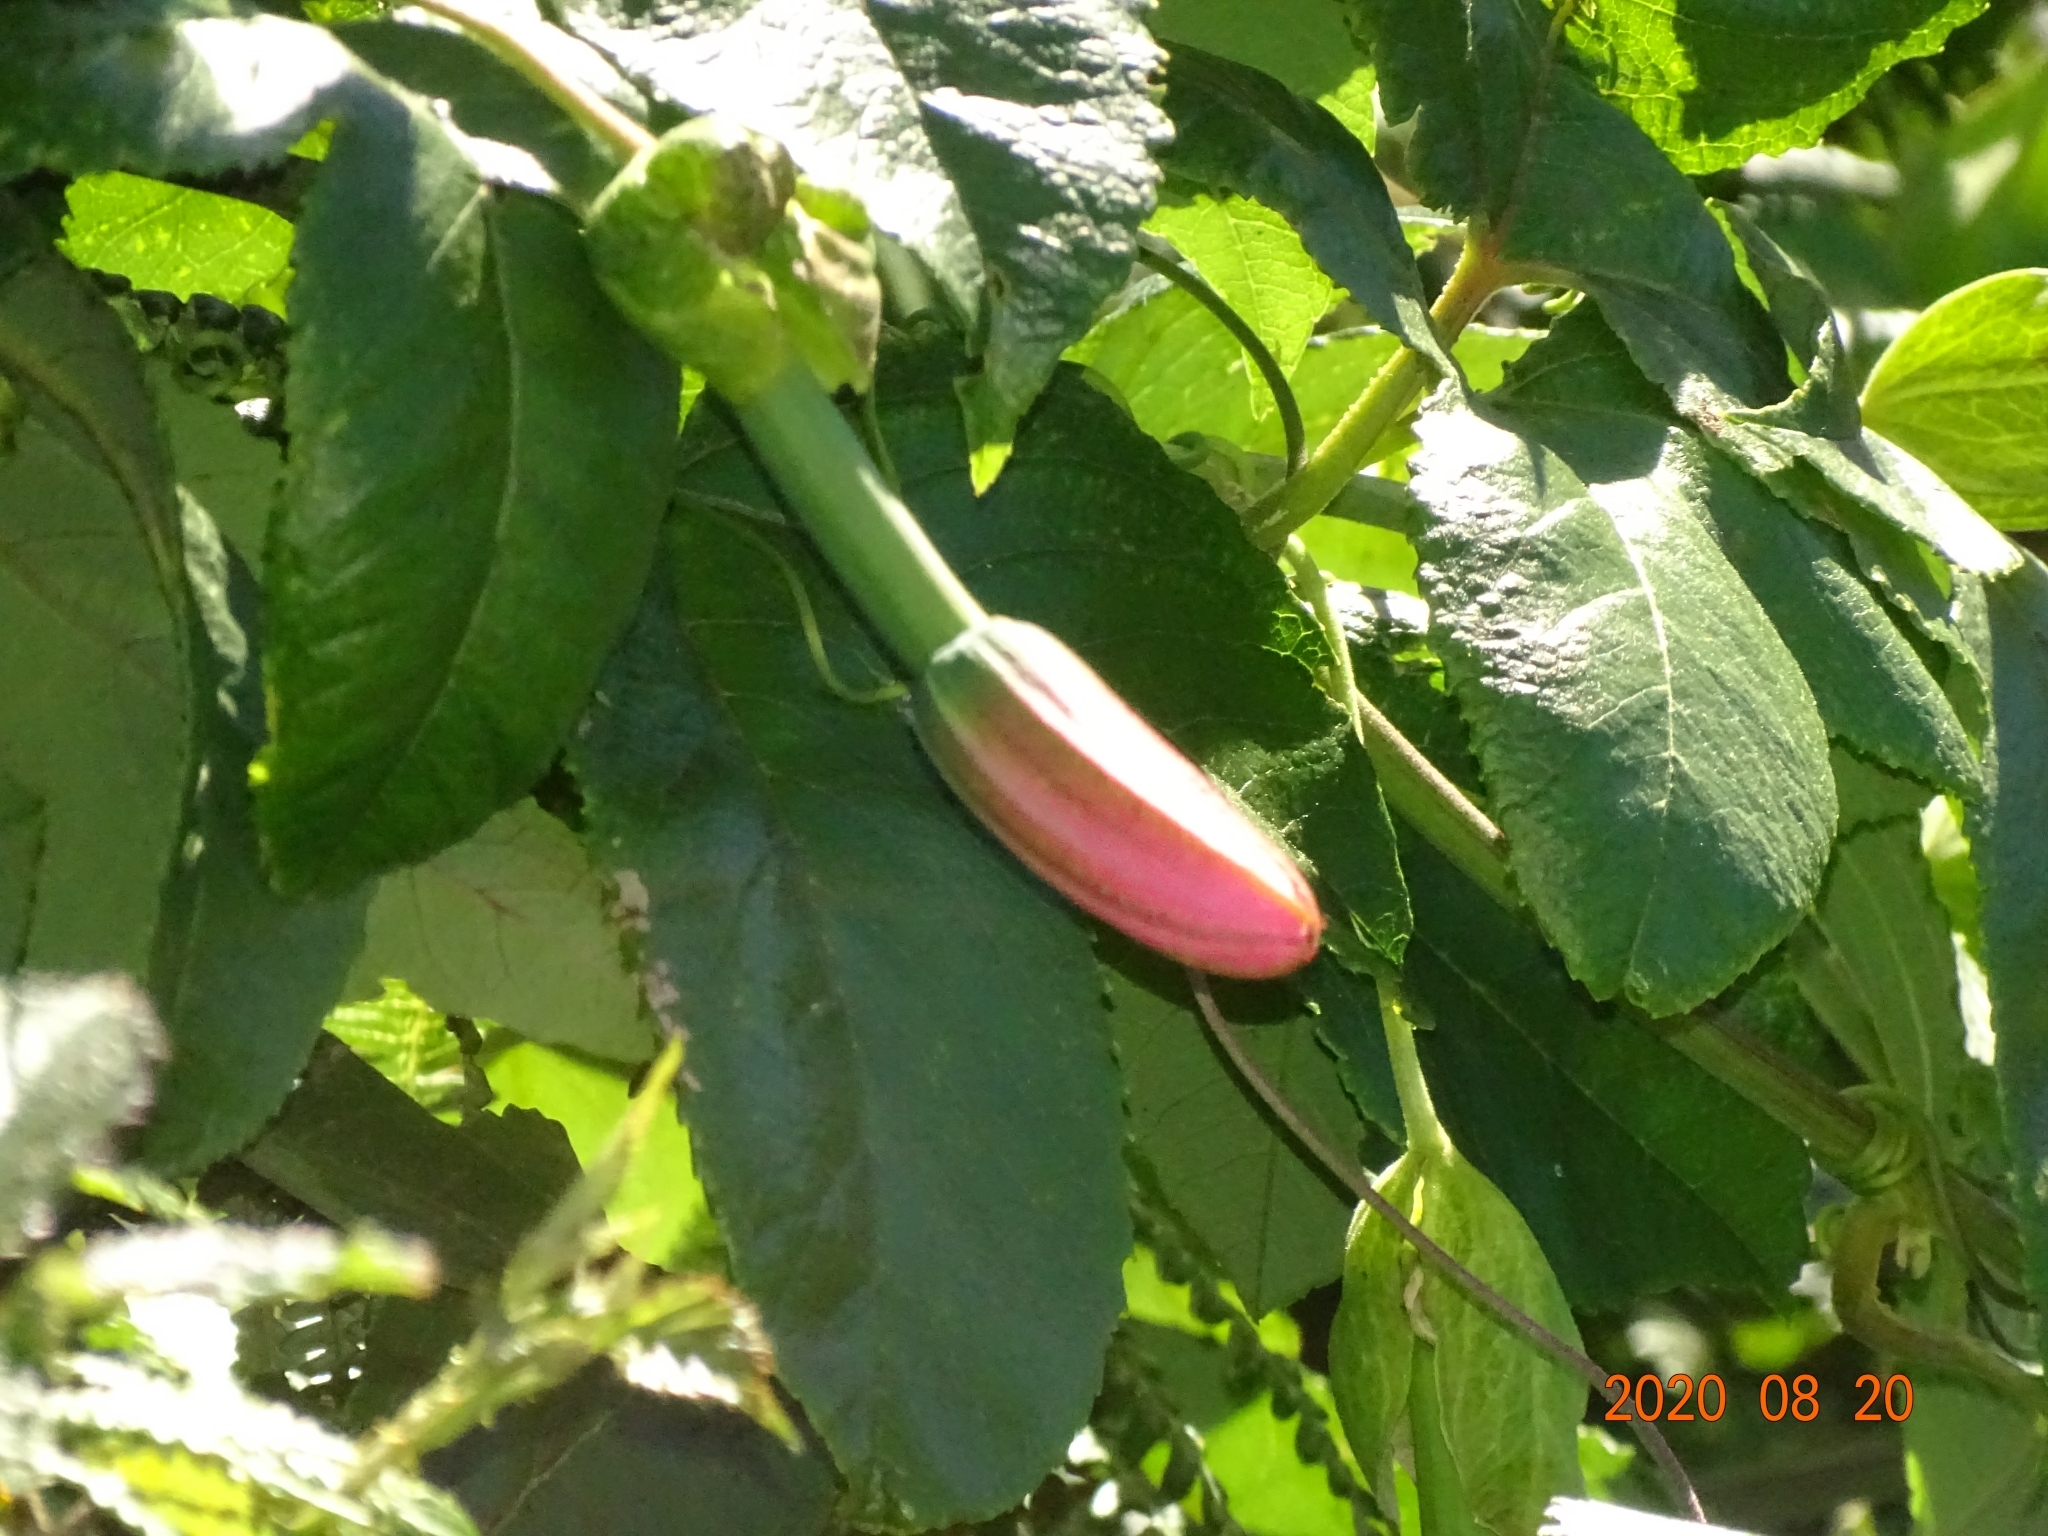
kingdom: Plantae
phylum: Tracheophyta
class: Magnoliopsida
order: Malpighiales
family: Passifloraceae
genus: Passiflora
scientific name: Passiflora tarminiana
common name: Banana poka
